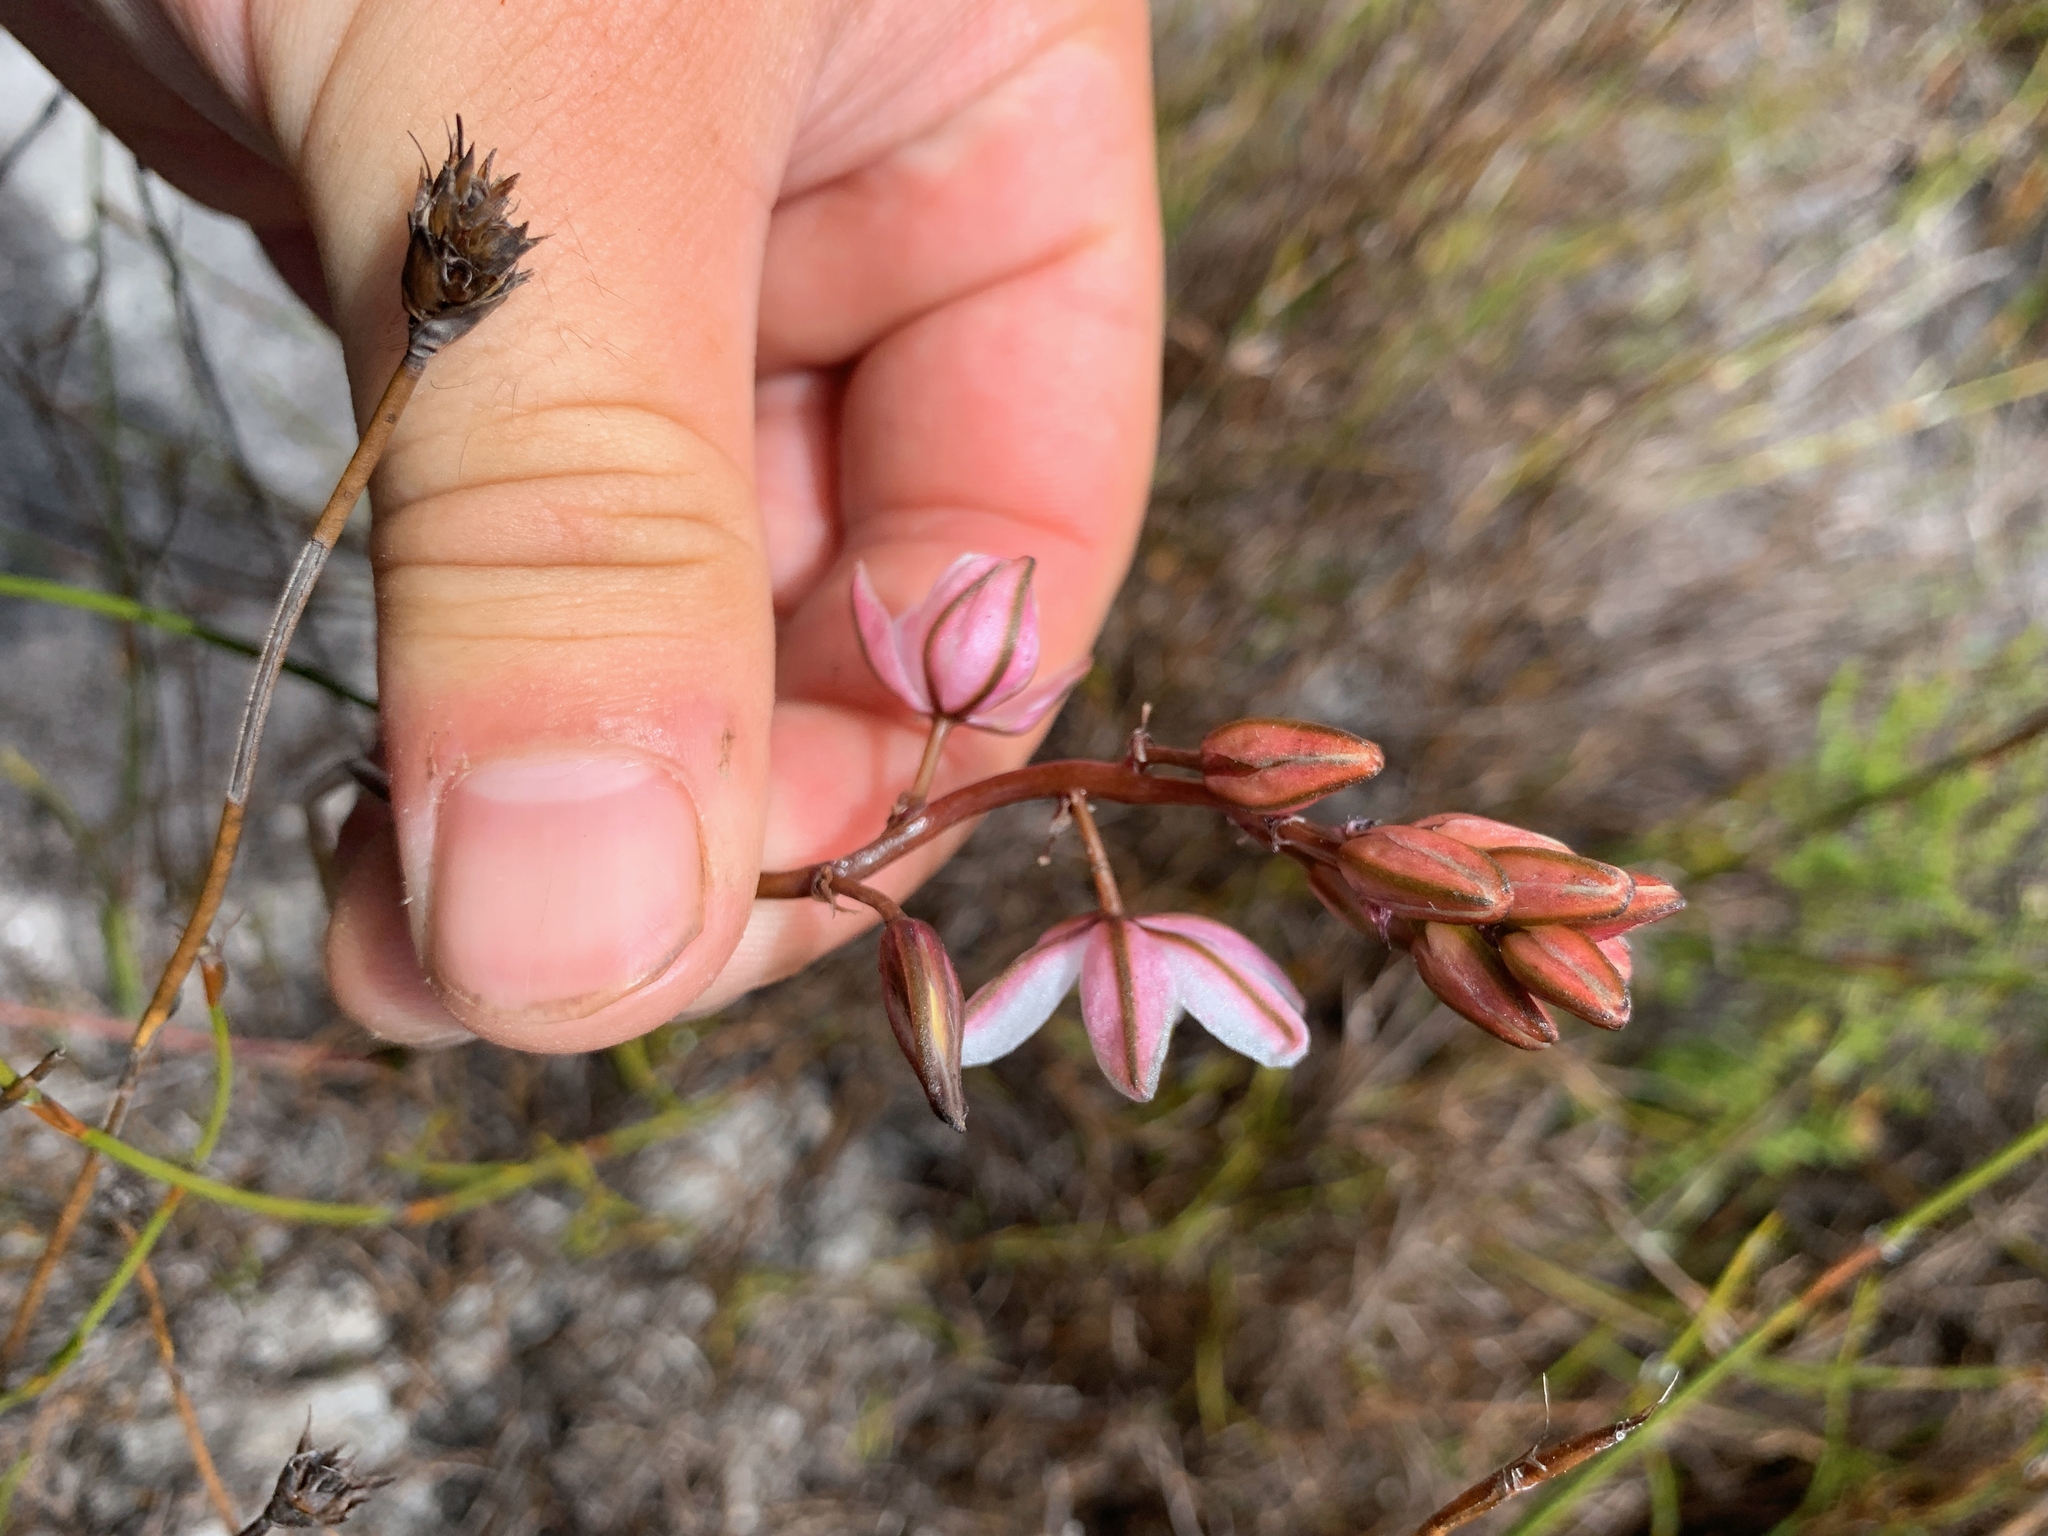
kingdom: Plantae
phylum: Tracheophyta
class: Liliopsida
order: Asparagales
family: Asparagaceae
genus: Drimia
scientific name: Drimia exuviata
